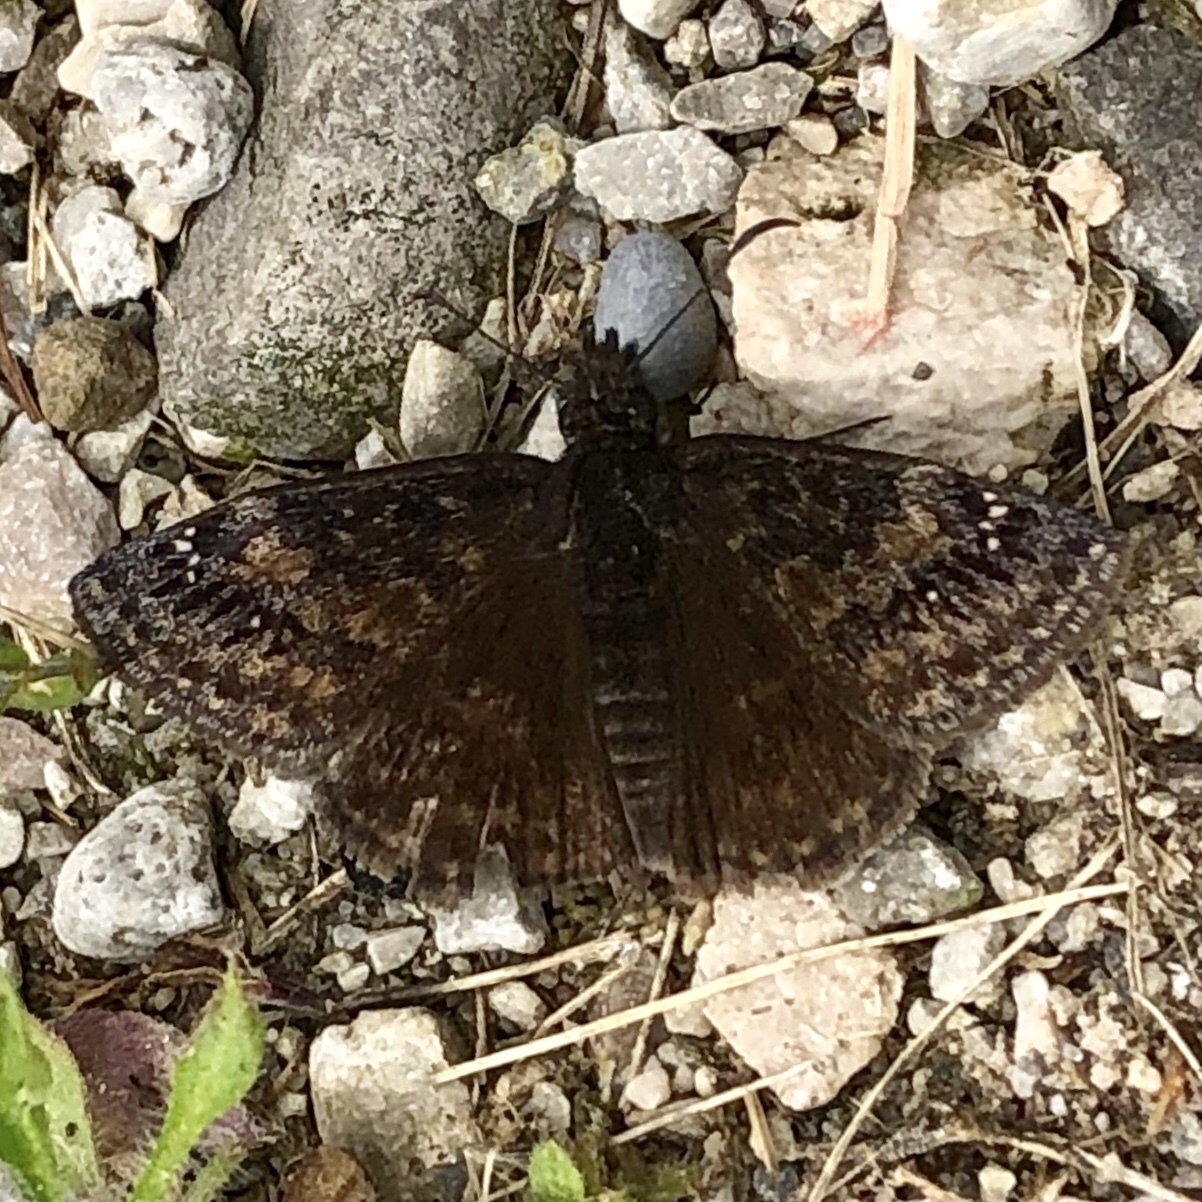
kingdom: Animalia
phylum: Arthropoda
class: Insecta
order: Lepidoptera
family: Hesperiidae
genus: Erynnis
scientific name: Erynnis baptisiae
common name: Wild indigo duskywing
